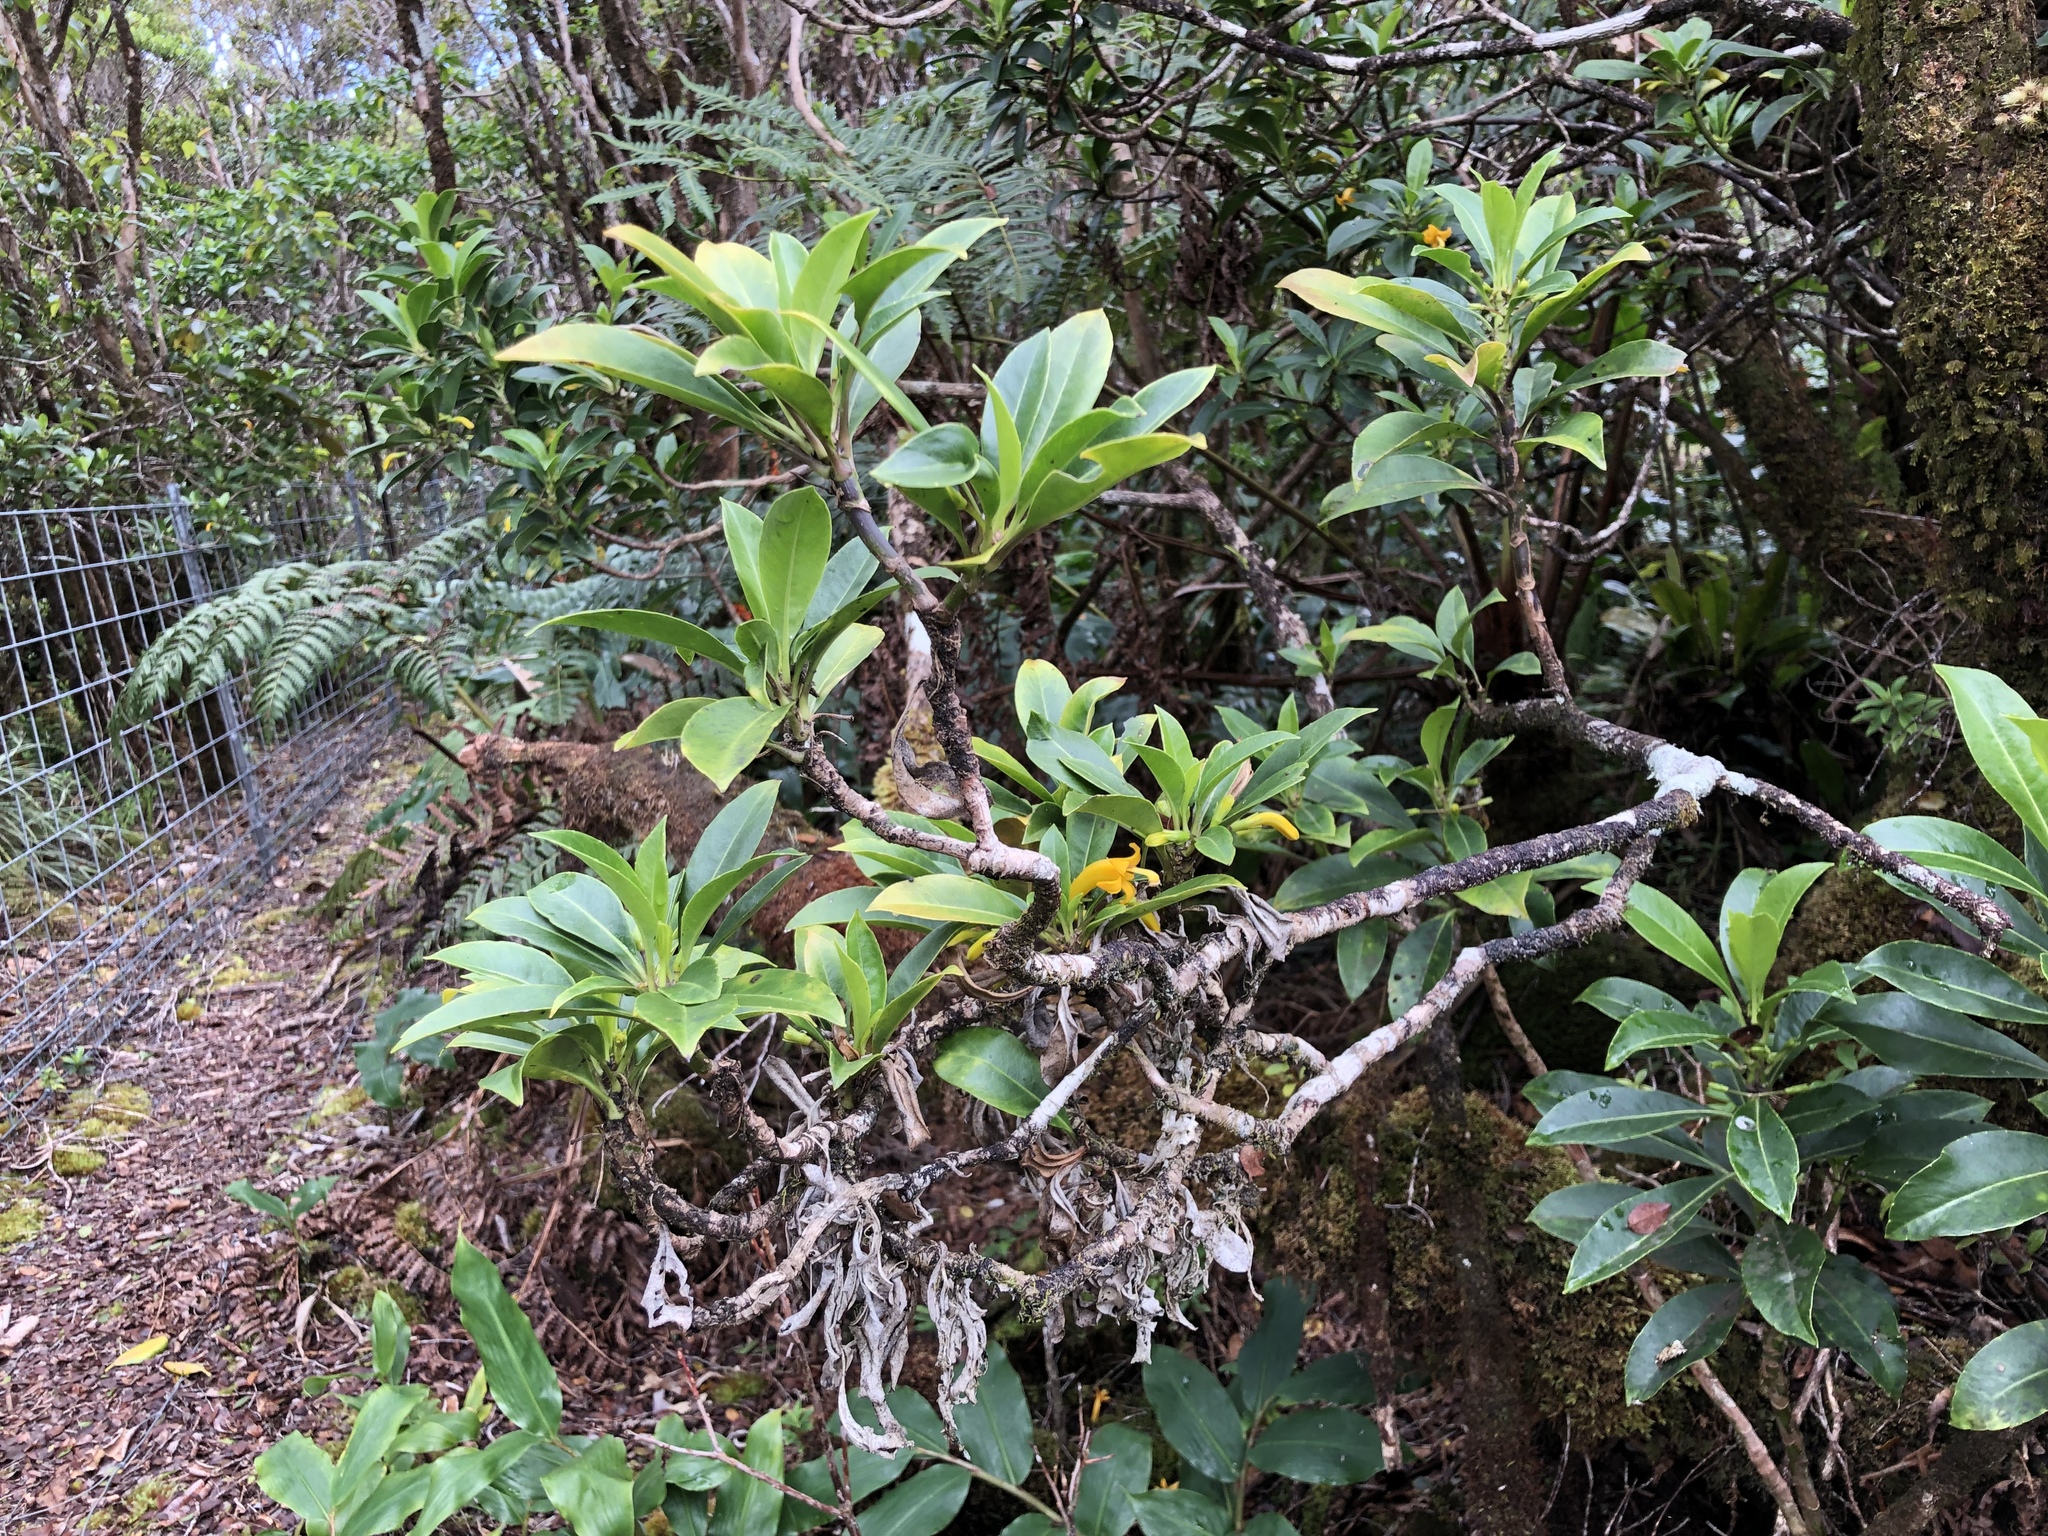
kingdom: Plantae
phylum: Tracheophyta
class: Magnoliopsida
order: Asterales
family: Goodeniaceae
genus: Scaevola
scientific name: Scaevola glabra
